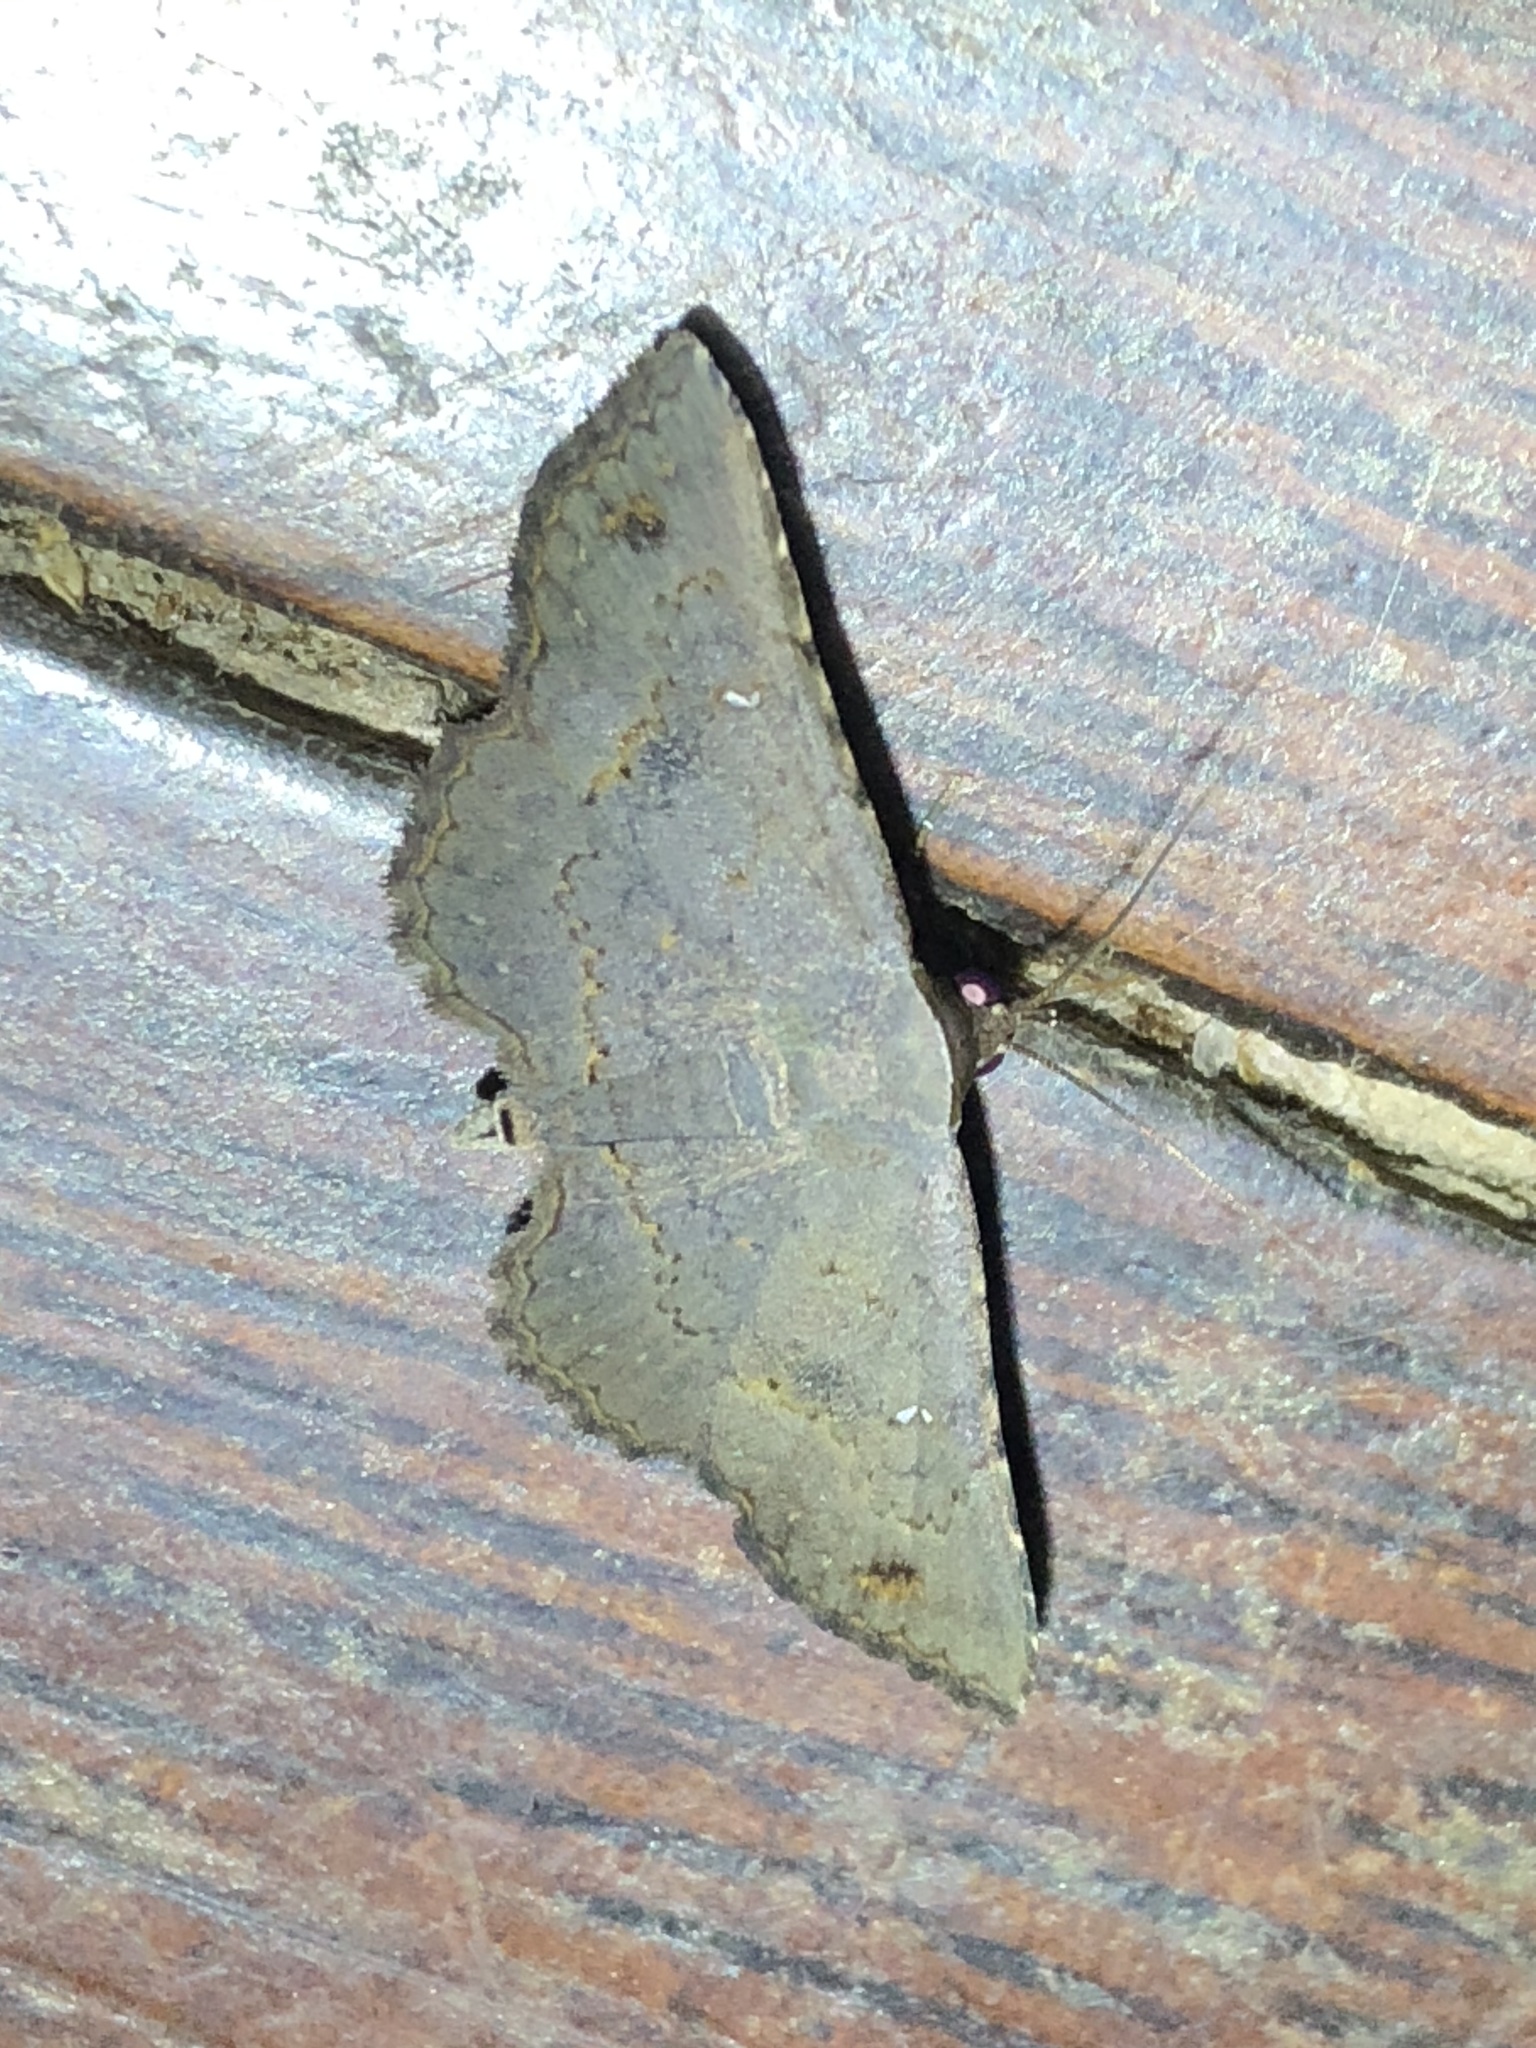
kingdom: Animalia
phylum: Arthropoda
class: Insecta
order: Lepidoptera
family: Erebidae
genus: Renodes
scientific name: Renodes liturata
